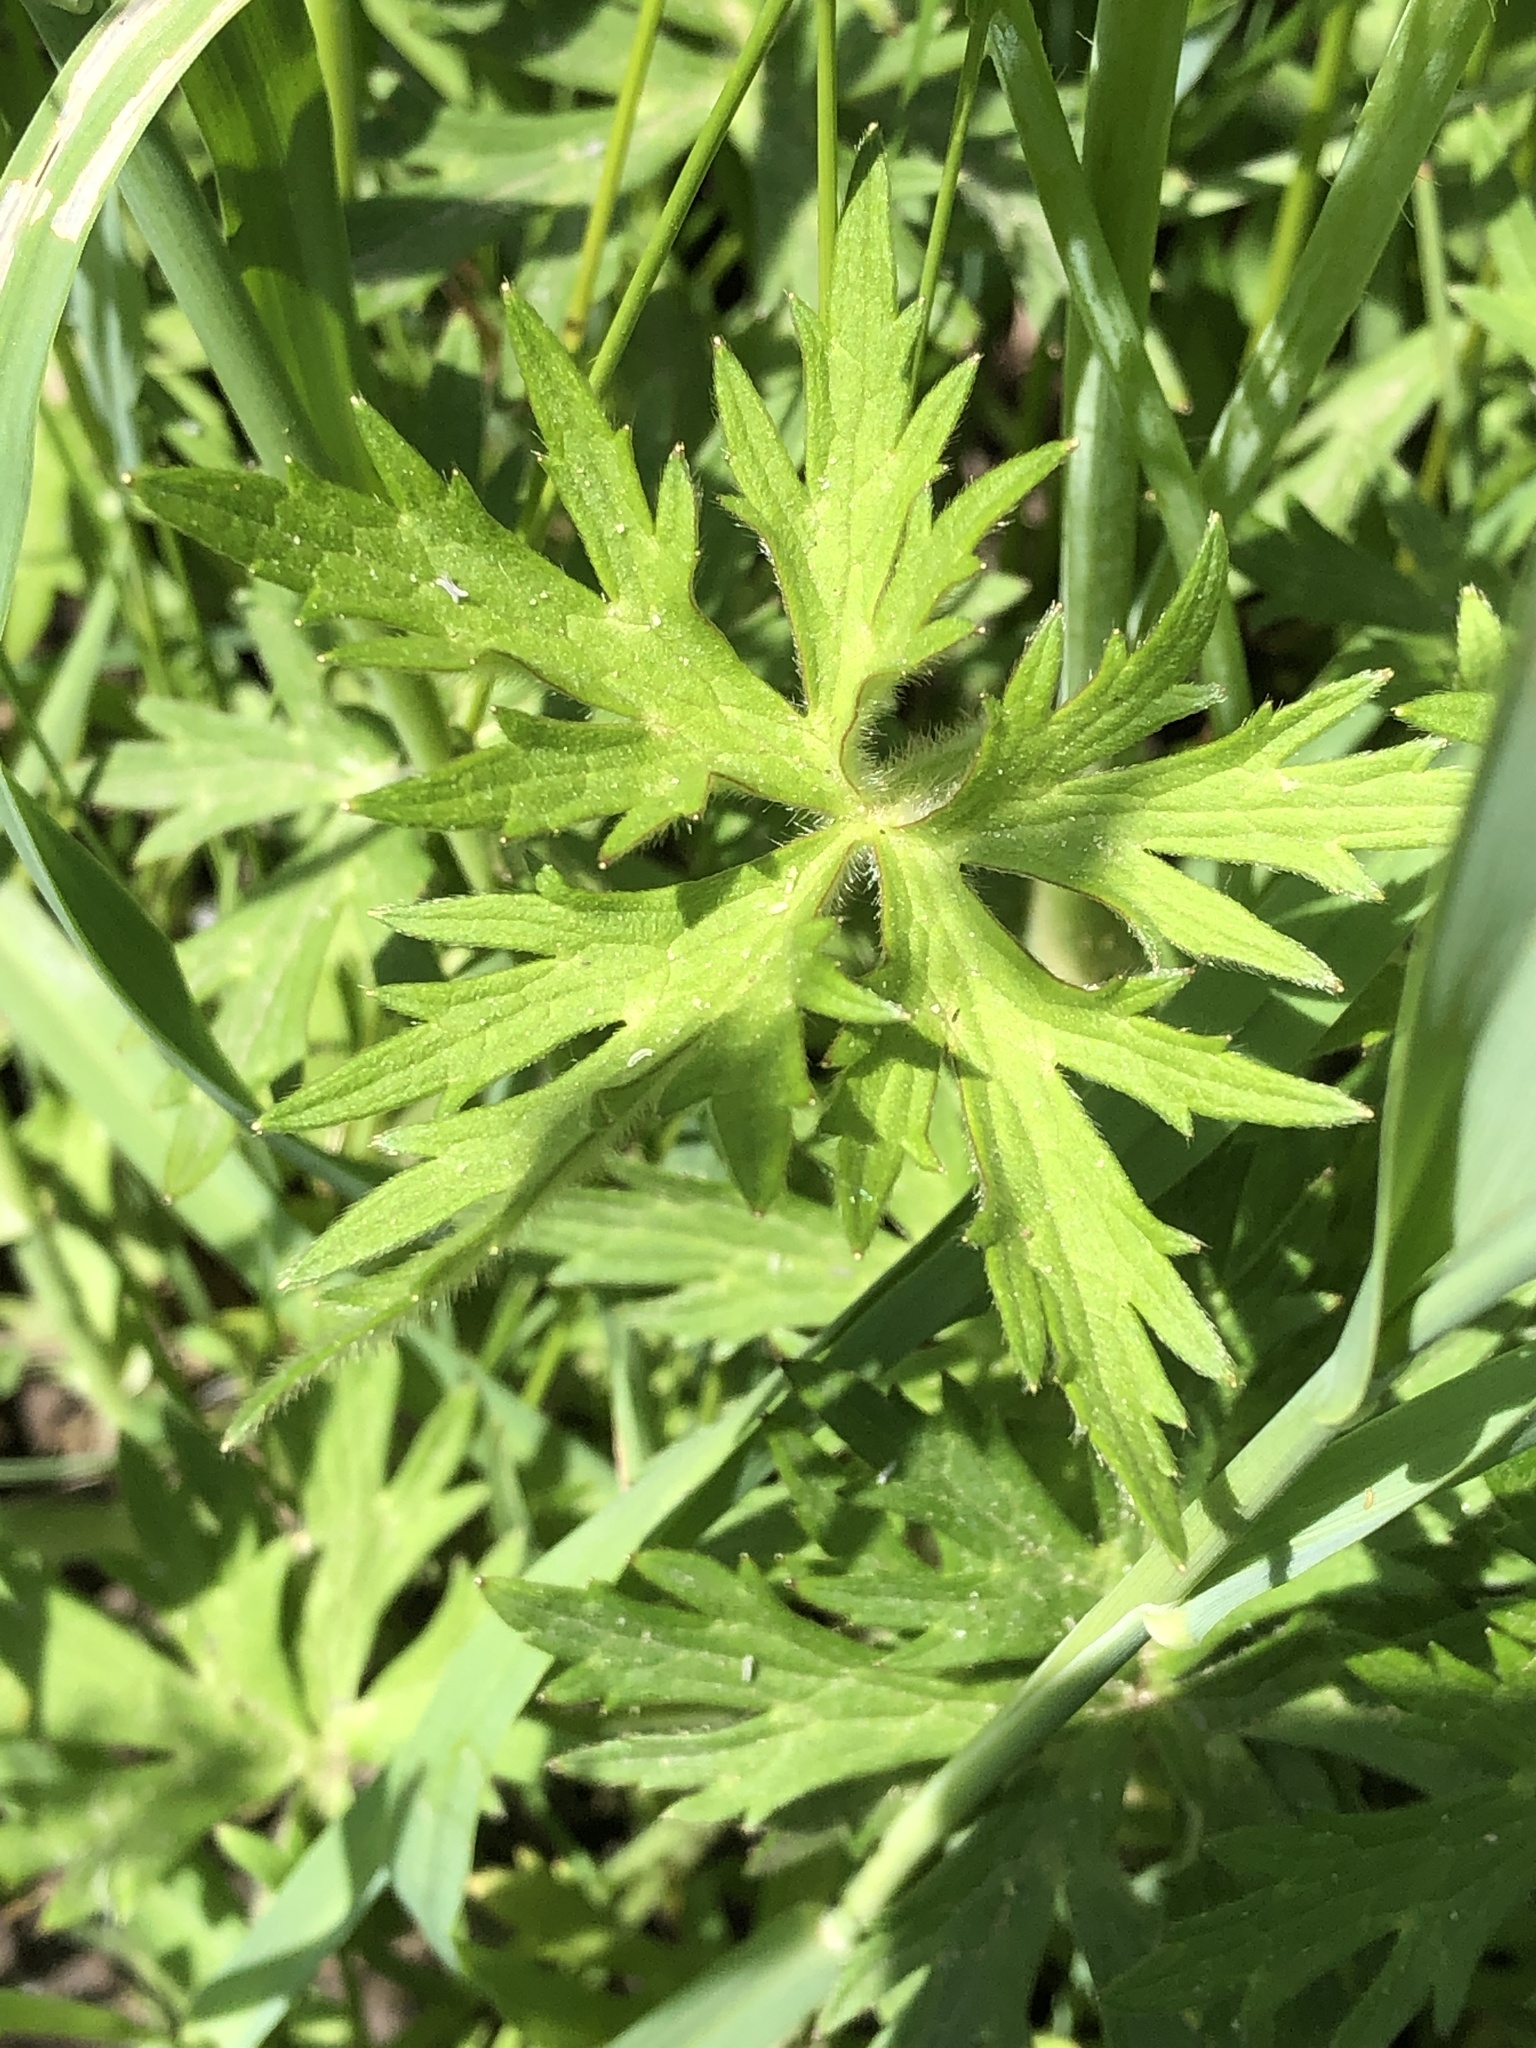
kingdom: Plantae
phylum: Tracheophyta
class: Magnoliopsida
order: Ranunculales
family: Ranunculaceae
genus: Ranunculus
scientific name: Ranunculus acris
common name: Meadow buttercup
